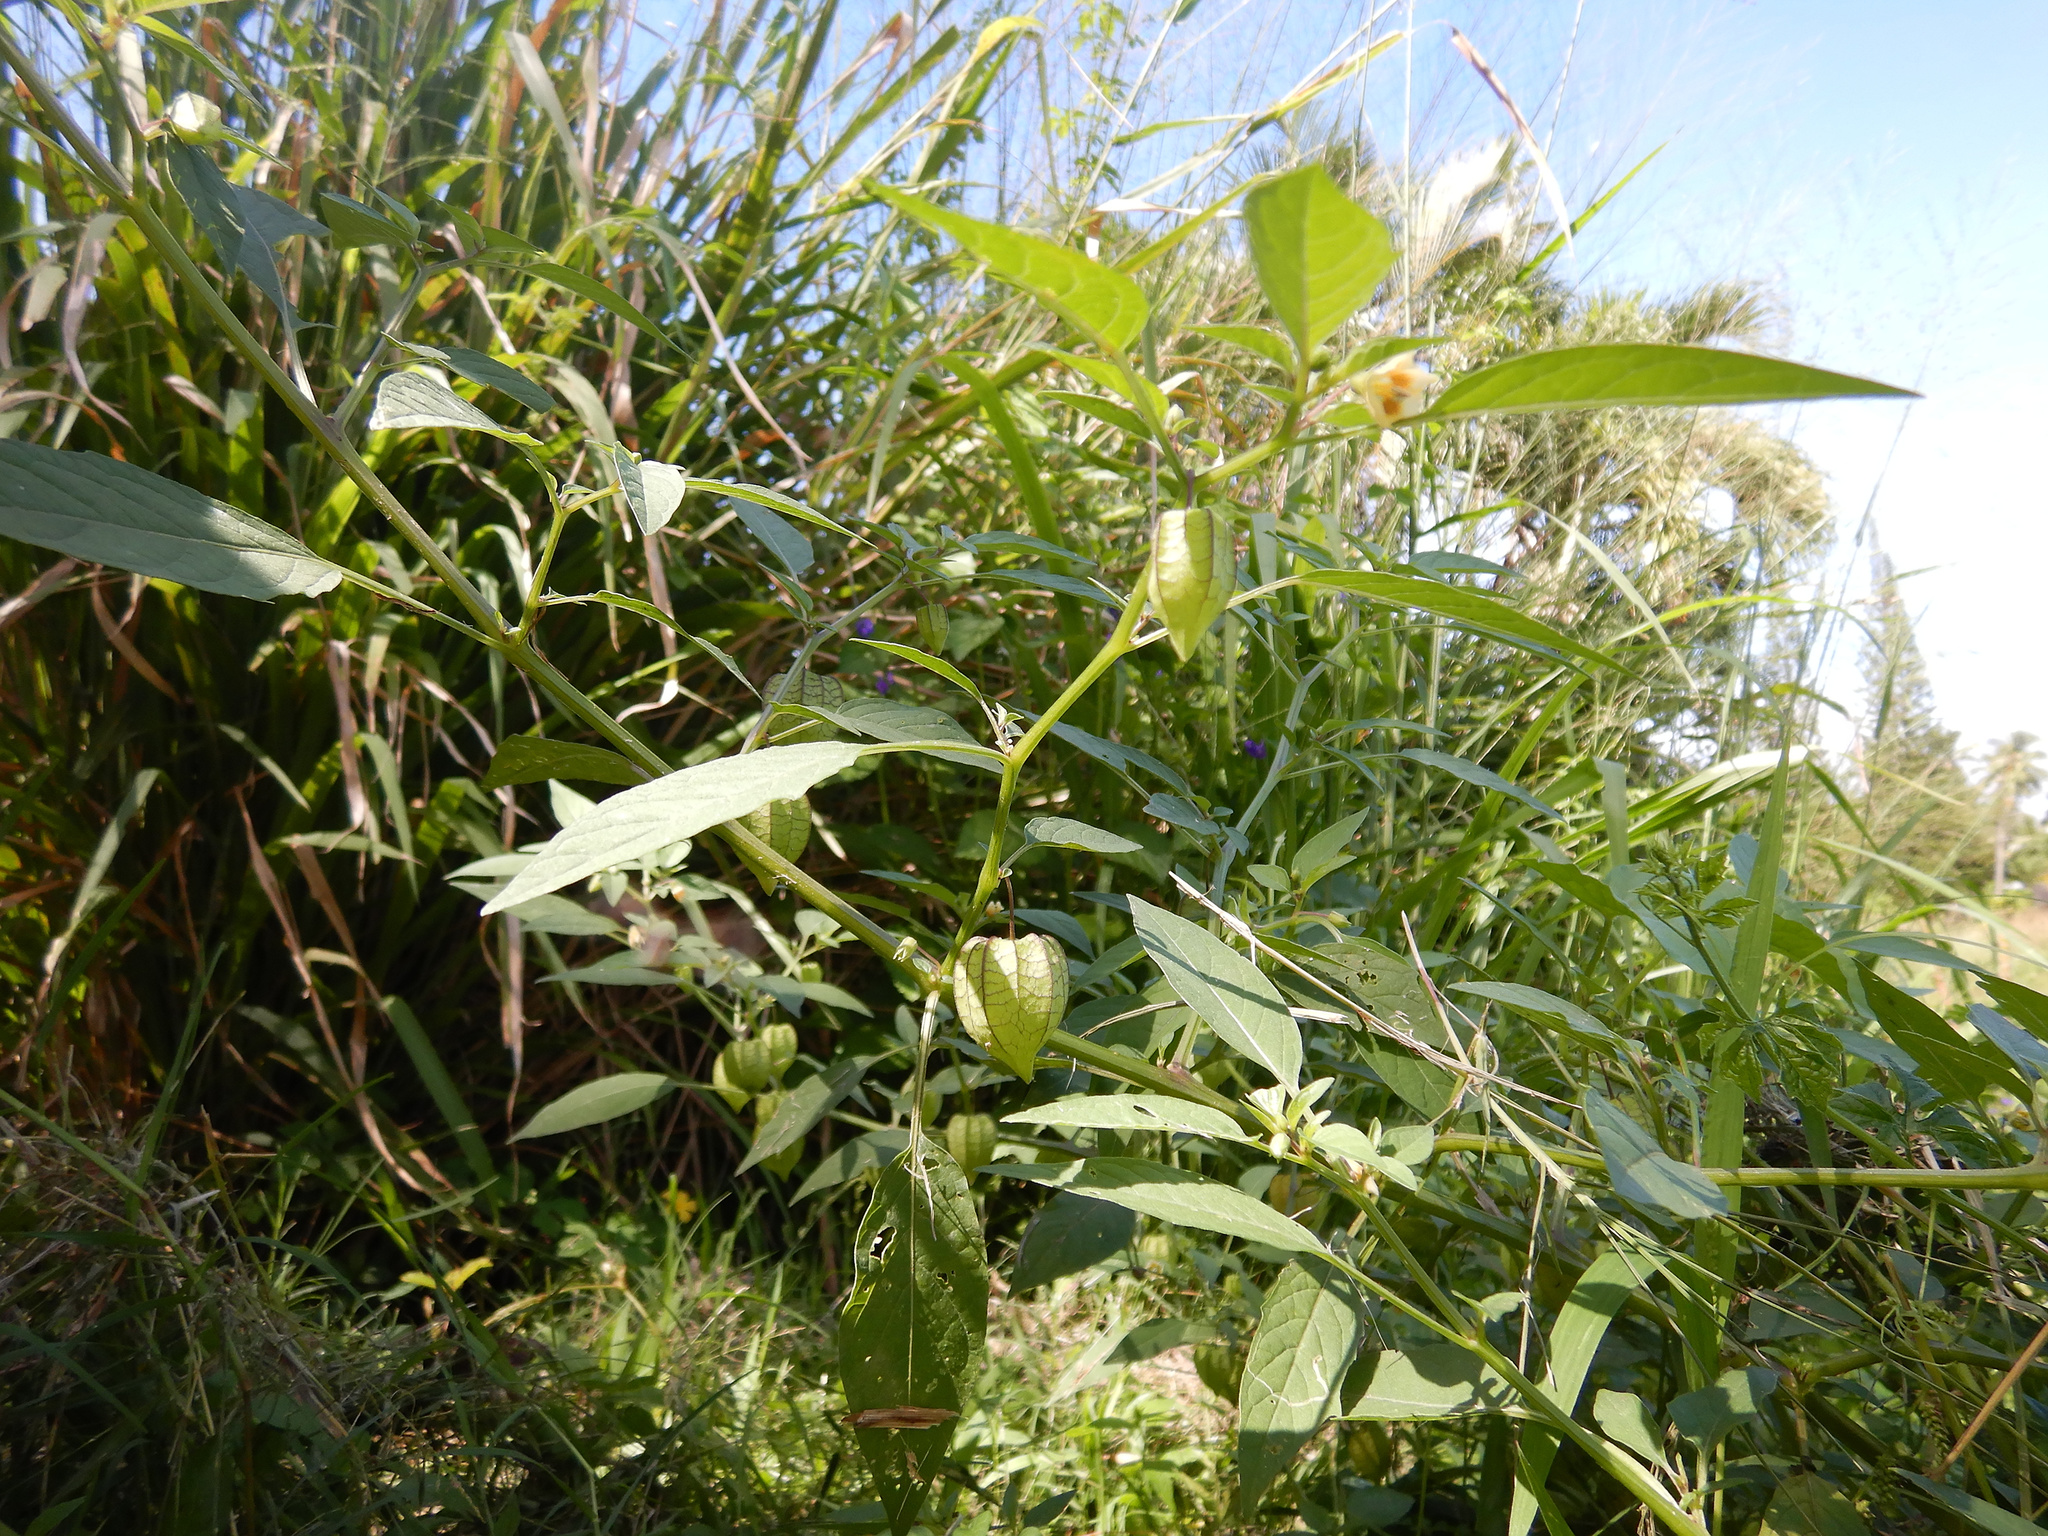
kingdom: Plantae
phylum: Tracheophyta
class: Magnoliopsida
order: Solanales
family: Solanaceae
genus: Physalis
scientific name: Physalis angulata
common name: Angular winter-cherry
